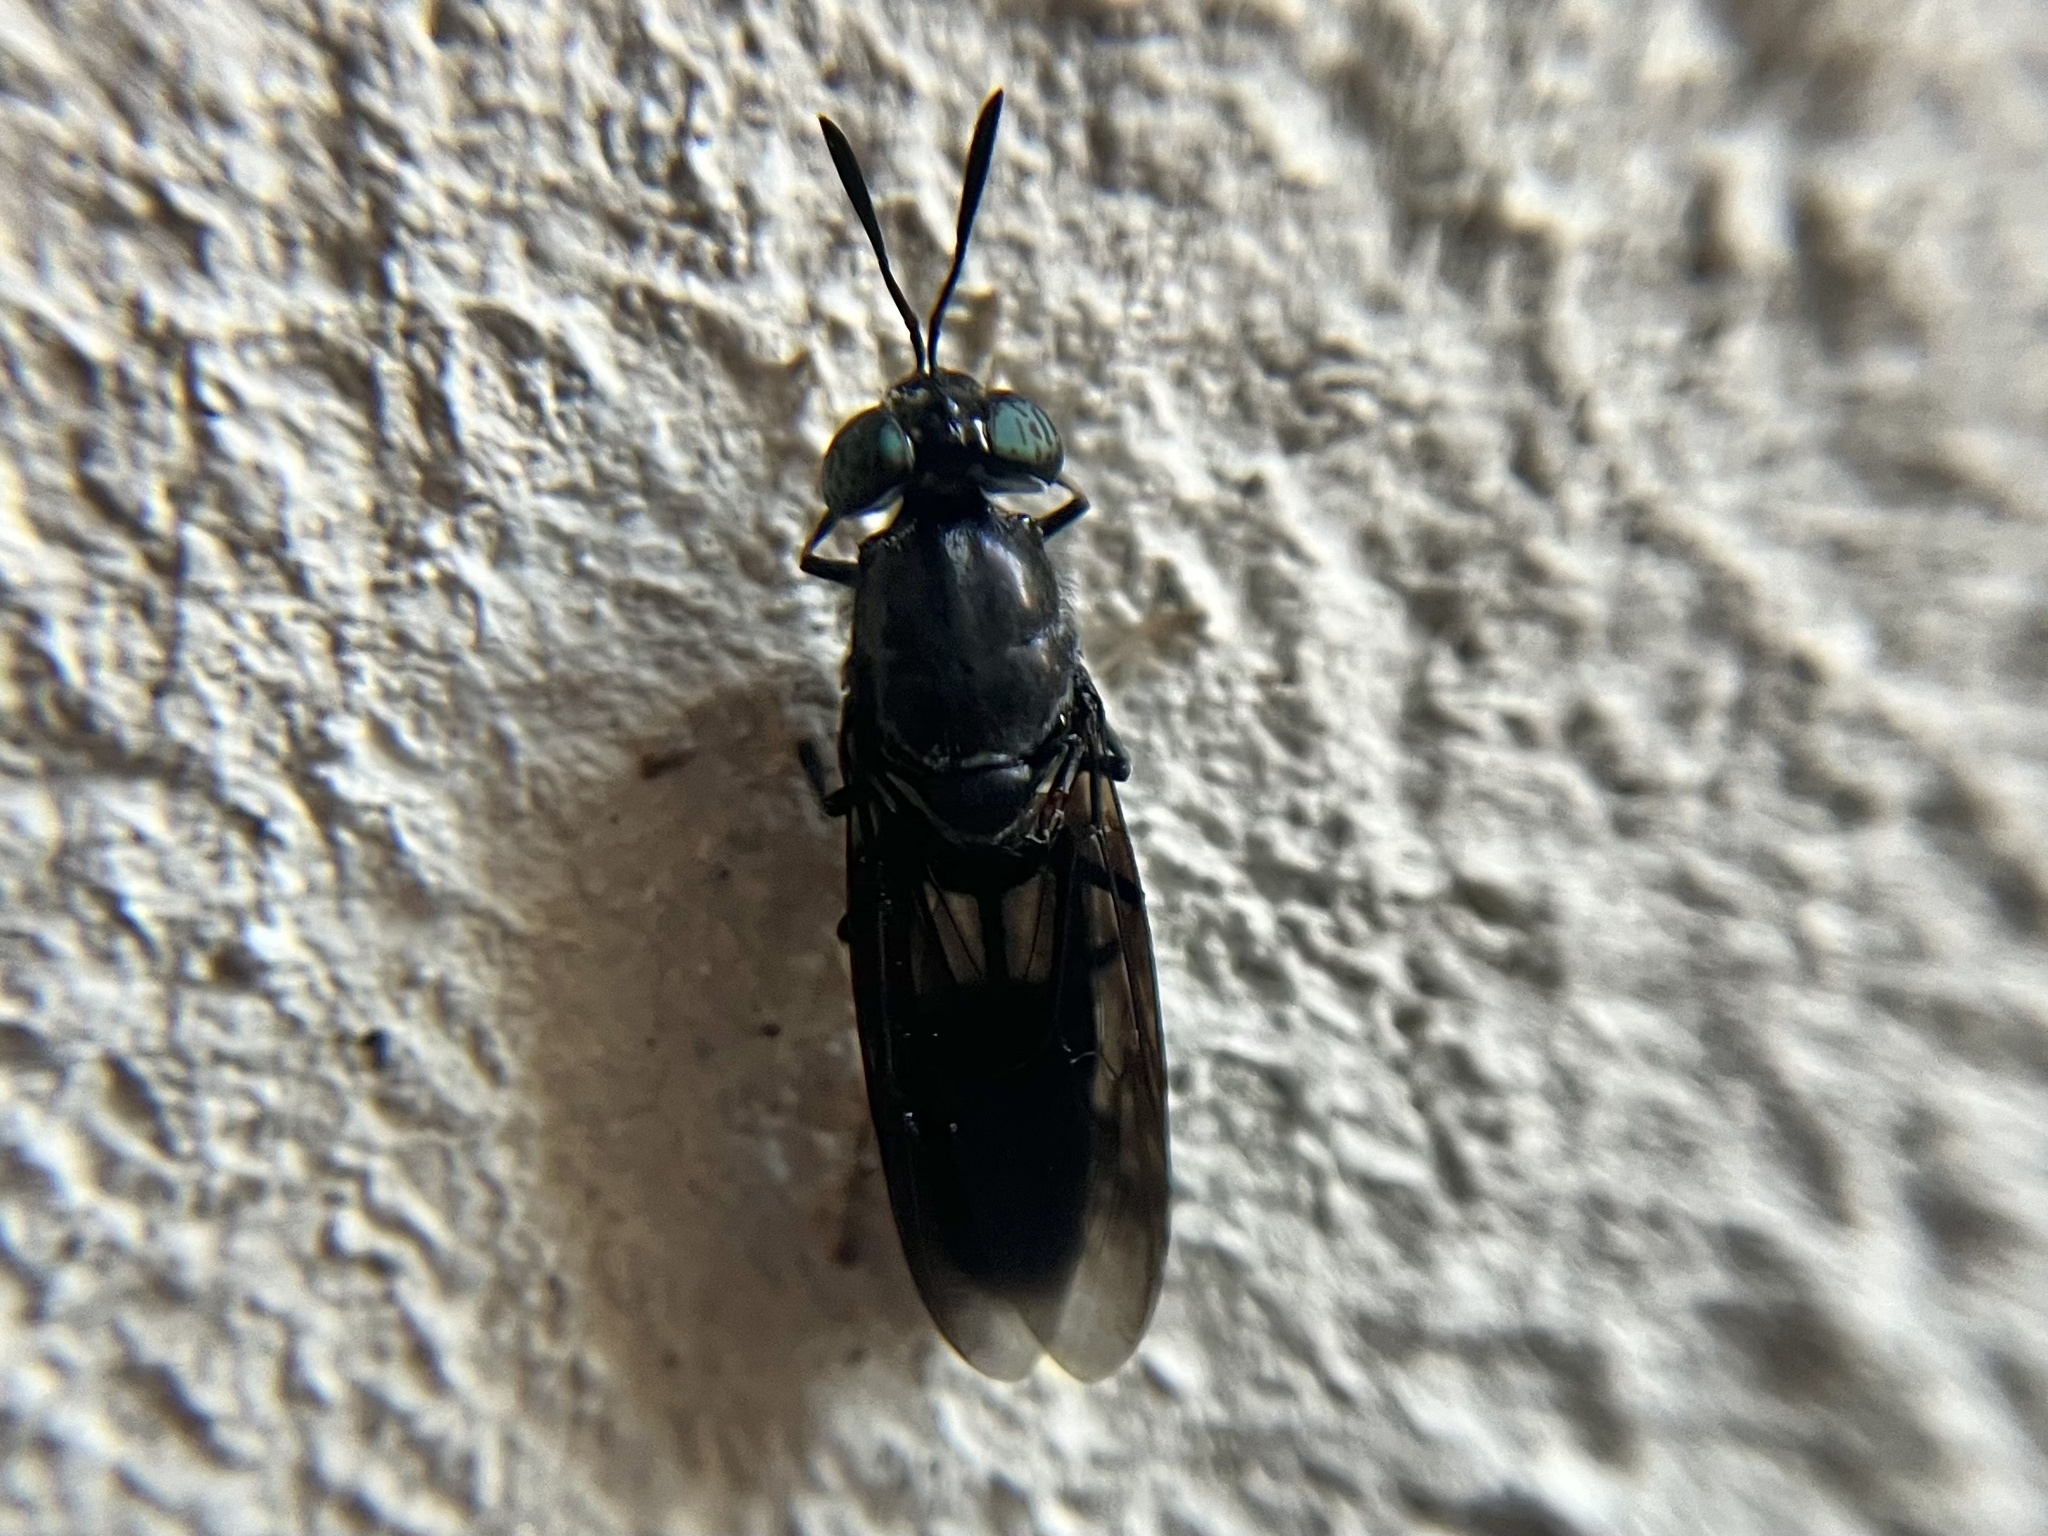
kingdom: Animalia
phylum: Arthropoda
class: Insecta
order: Diptera
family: Stratiomyidae
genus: Hermetia
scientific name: Hermetia illucens
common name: Black soldier fly
